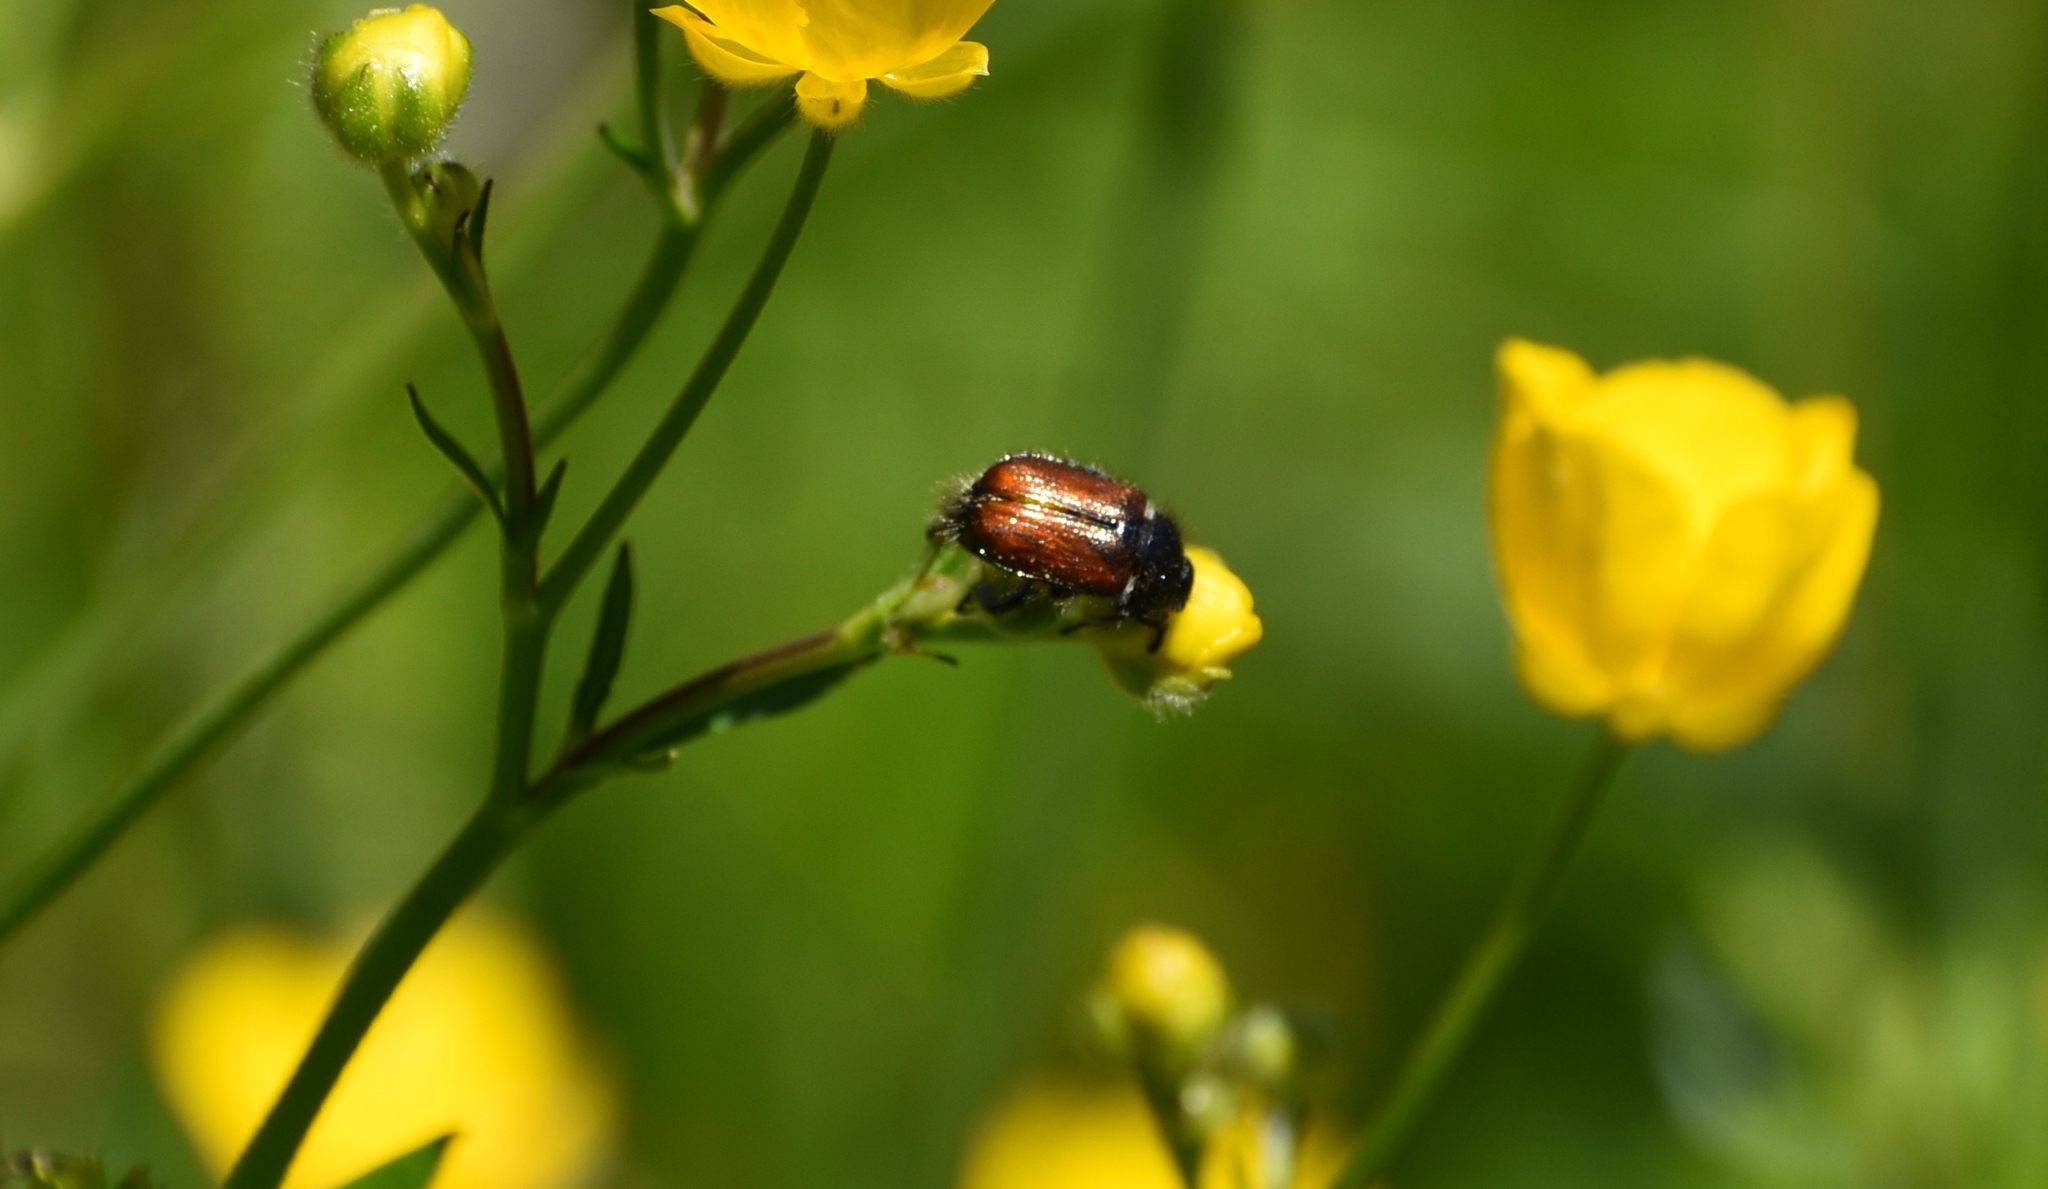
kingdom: Animalia
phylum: Arthropoda
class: Insecta
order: Coleoptera
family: Scarabaeidae
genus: Phyllopertha
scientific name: Phyllopertha horticola
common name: Garden chafer
